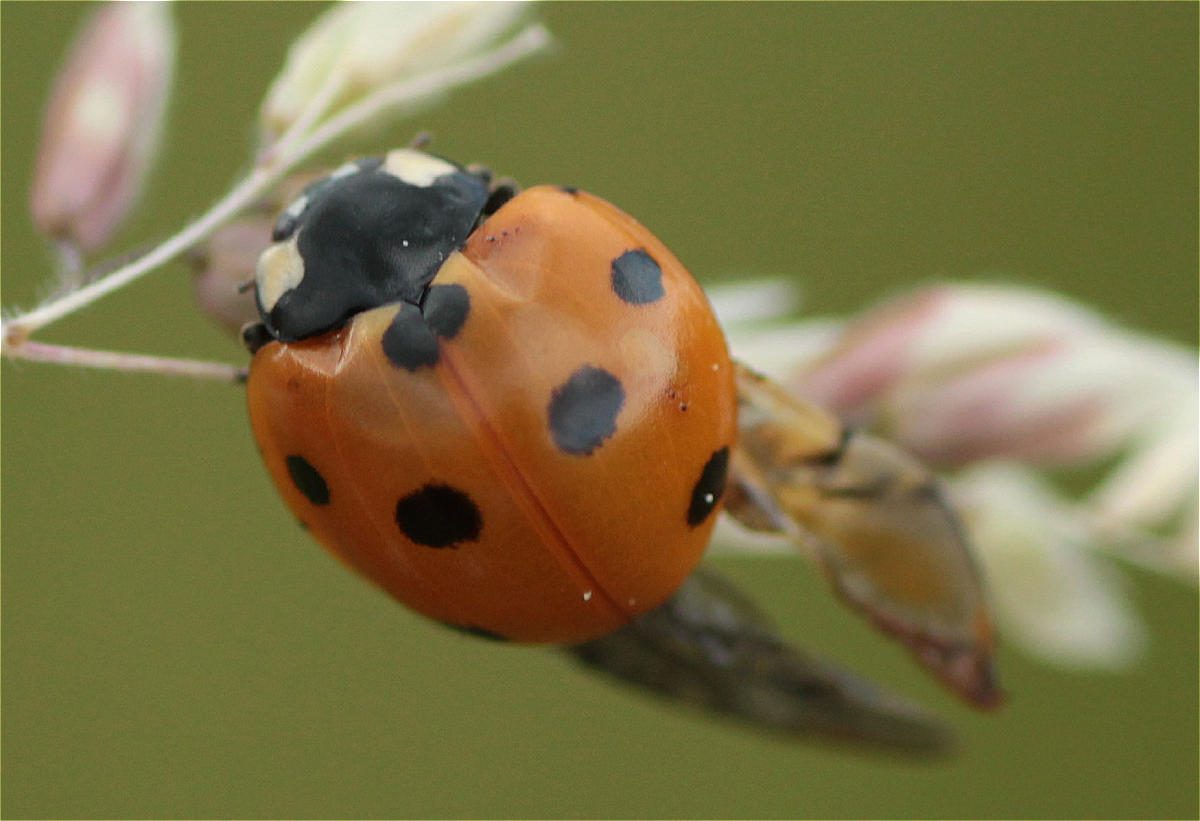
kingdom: Animalia
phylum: Arthropoda
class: Insecta
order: Coleoptera
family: Coccinellidae
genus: Coccinella
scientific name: Coccinella septempunctata
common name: Sevenspotted lady beetle
